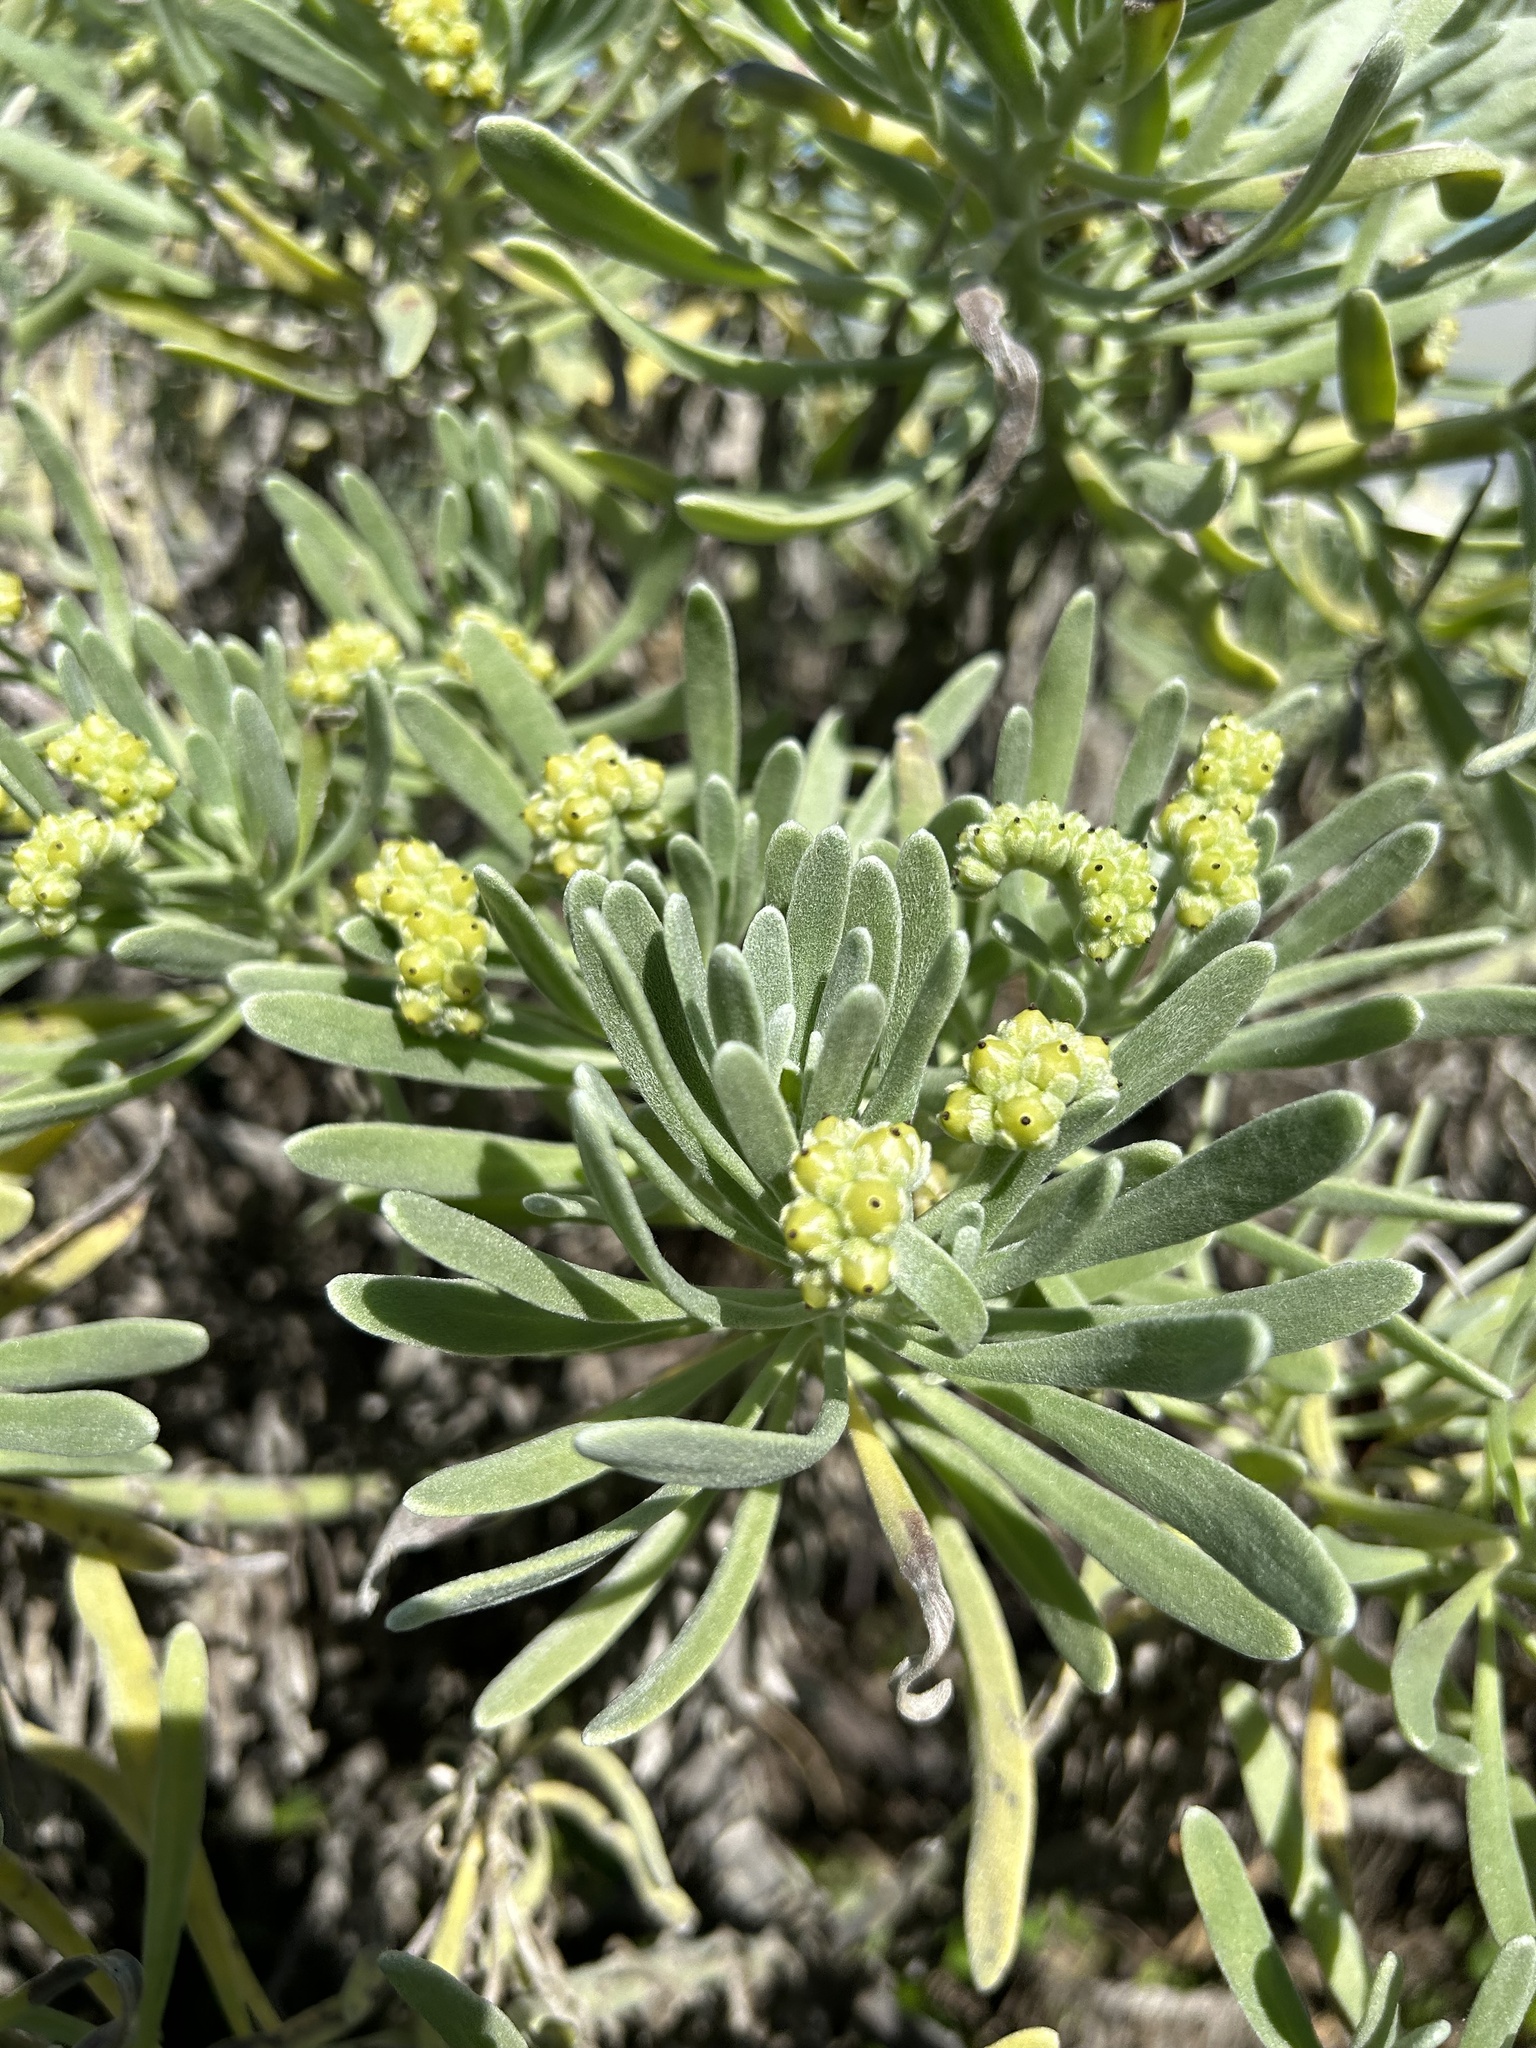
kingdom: Plantae
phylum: Tracheophyta
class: Magnoliopsida
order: Boraginales
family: Heliotropiaceae
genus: Tournefortia
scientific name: Tournefortia gnaphalodes
